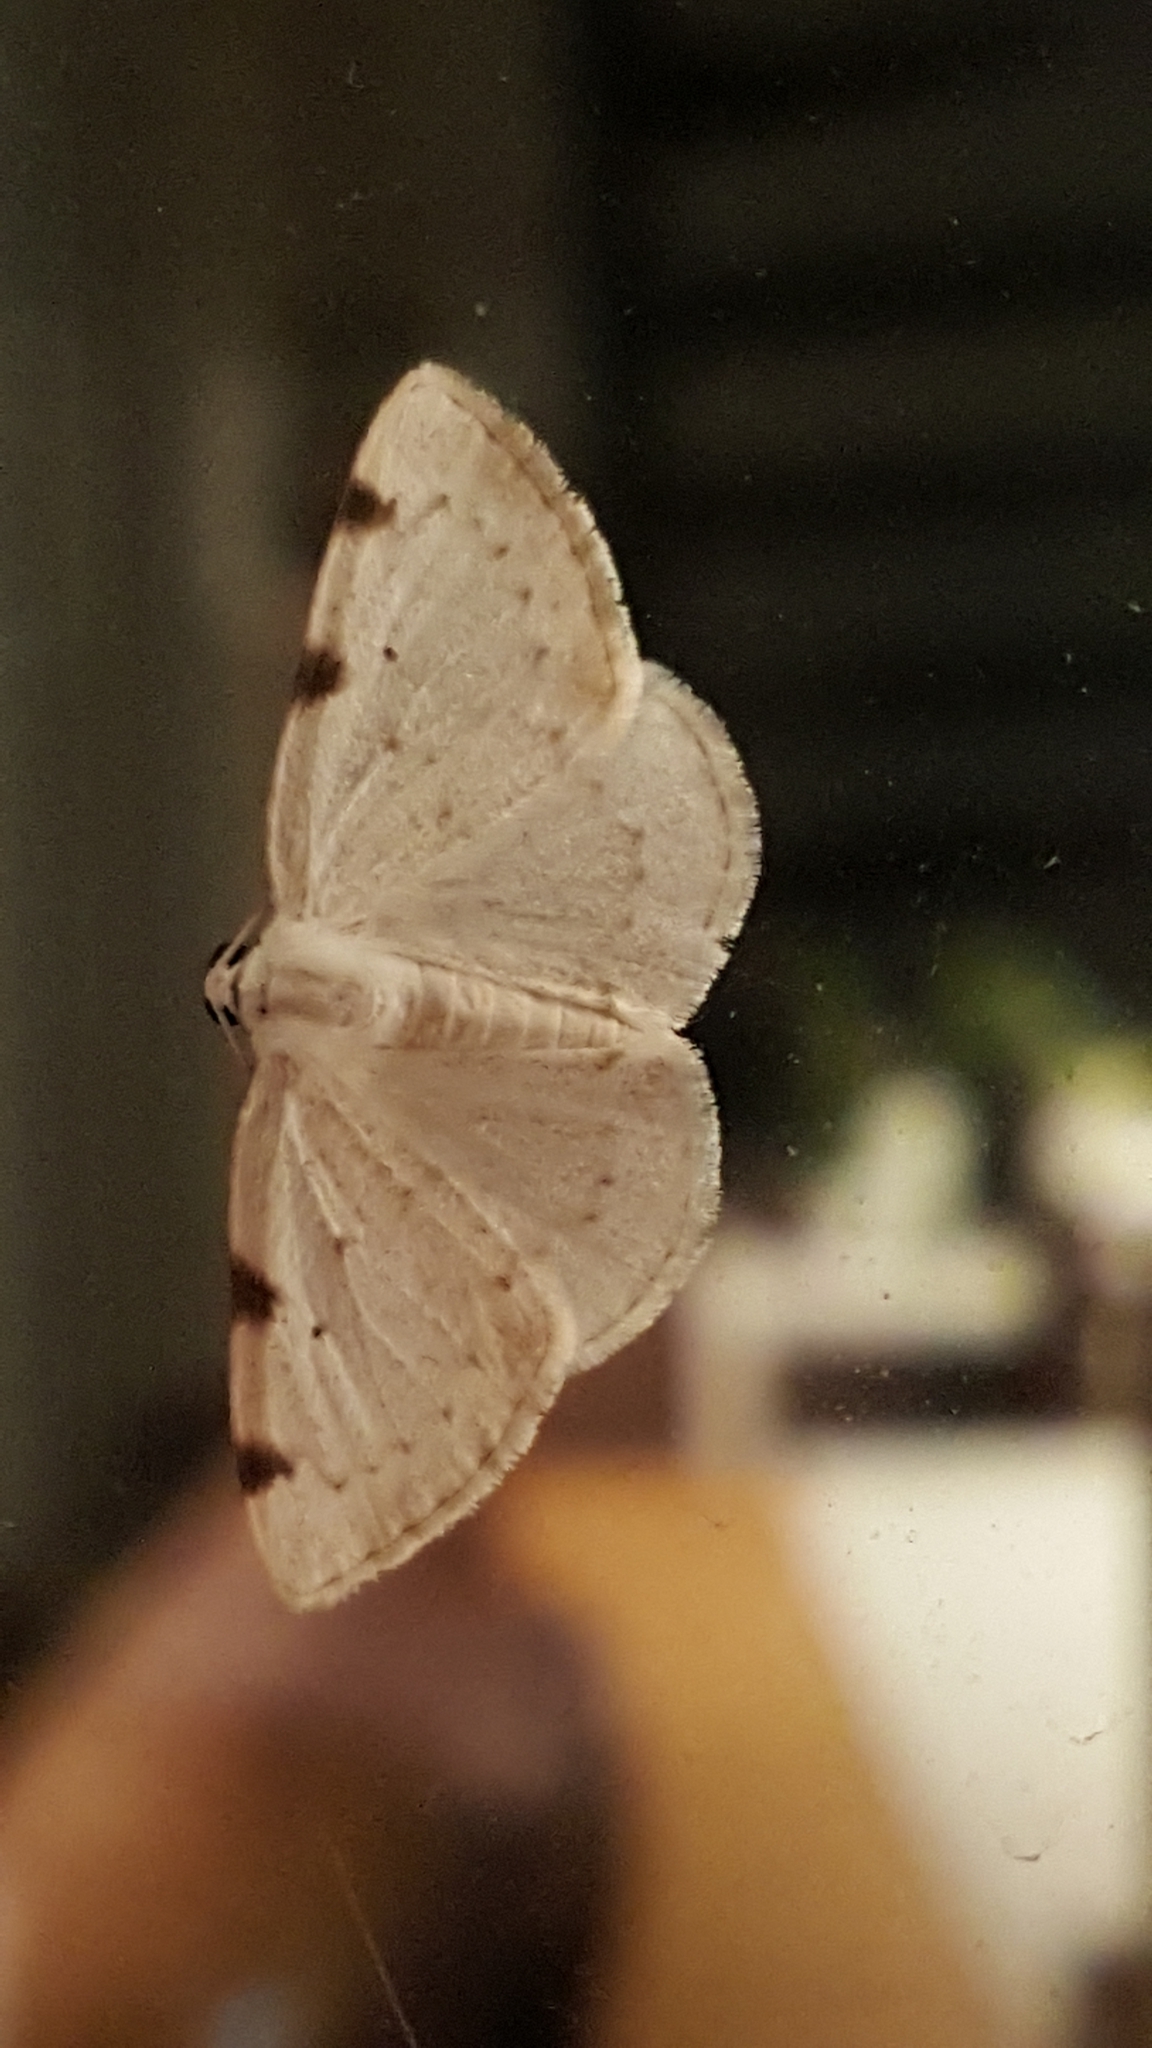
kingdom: Animalia
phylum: Arthropoda
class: Insecta
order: Lepidoptera
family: Geometridae
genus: Lomographa
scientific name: Lomographa bimaculata
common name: White-pinion spotted
